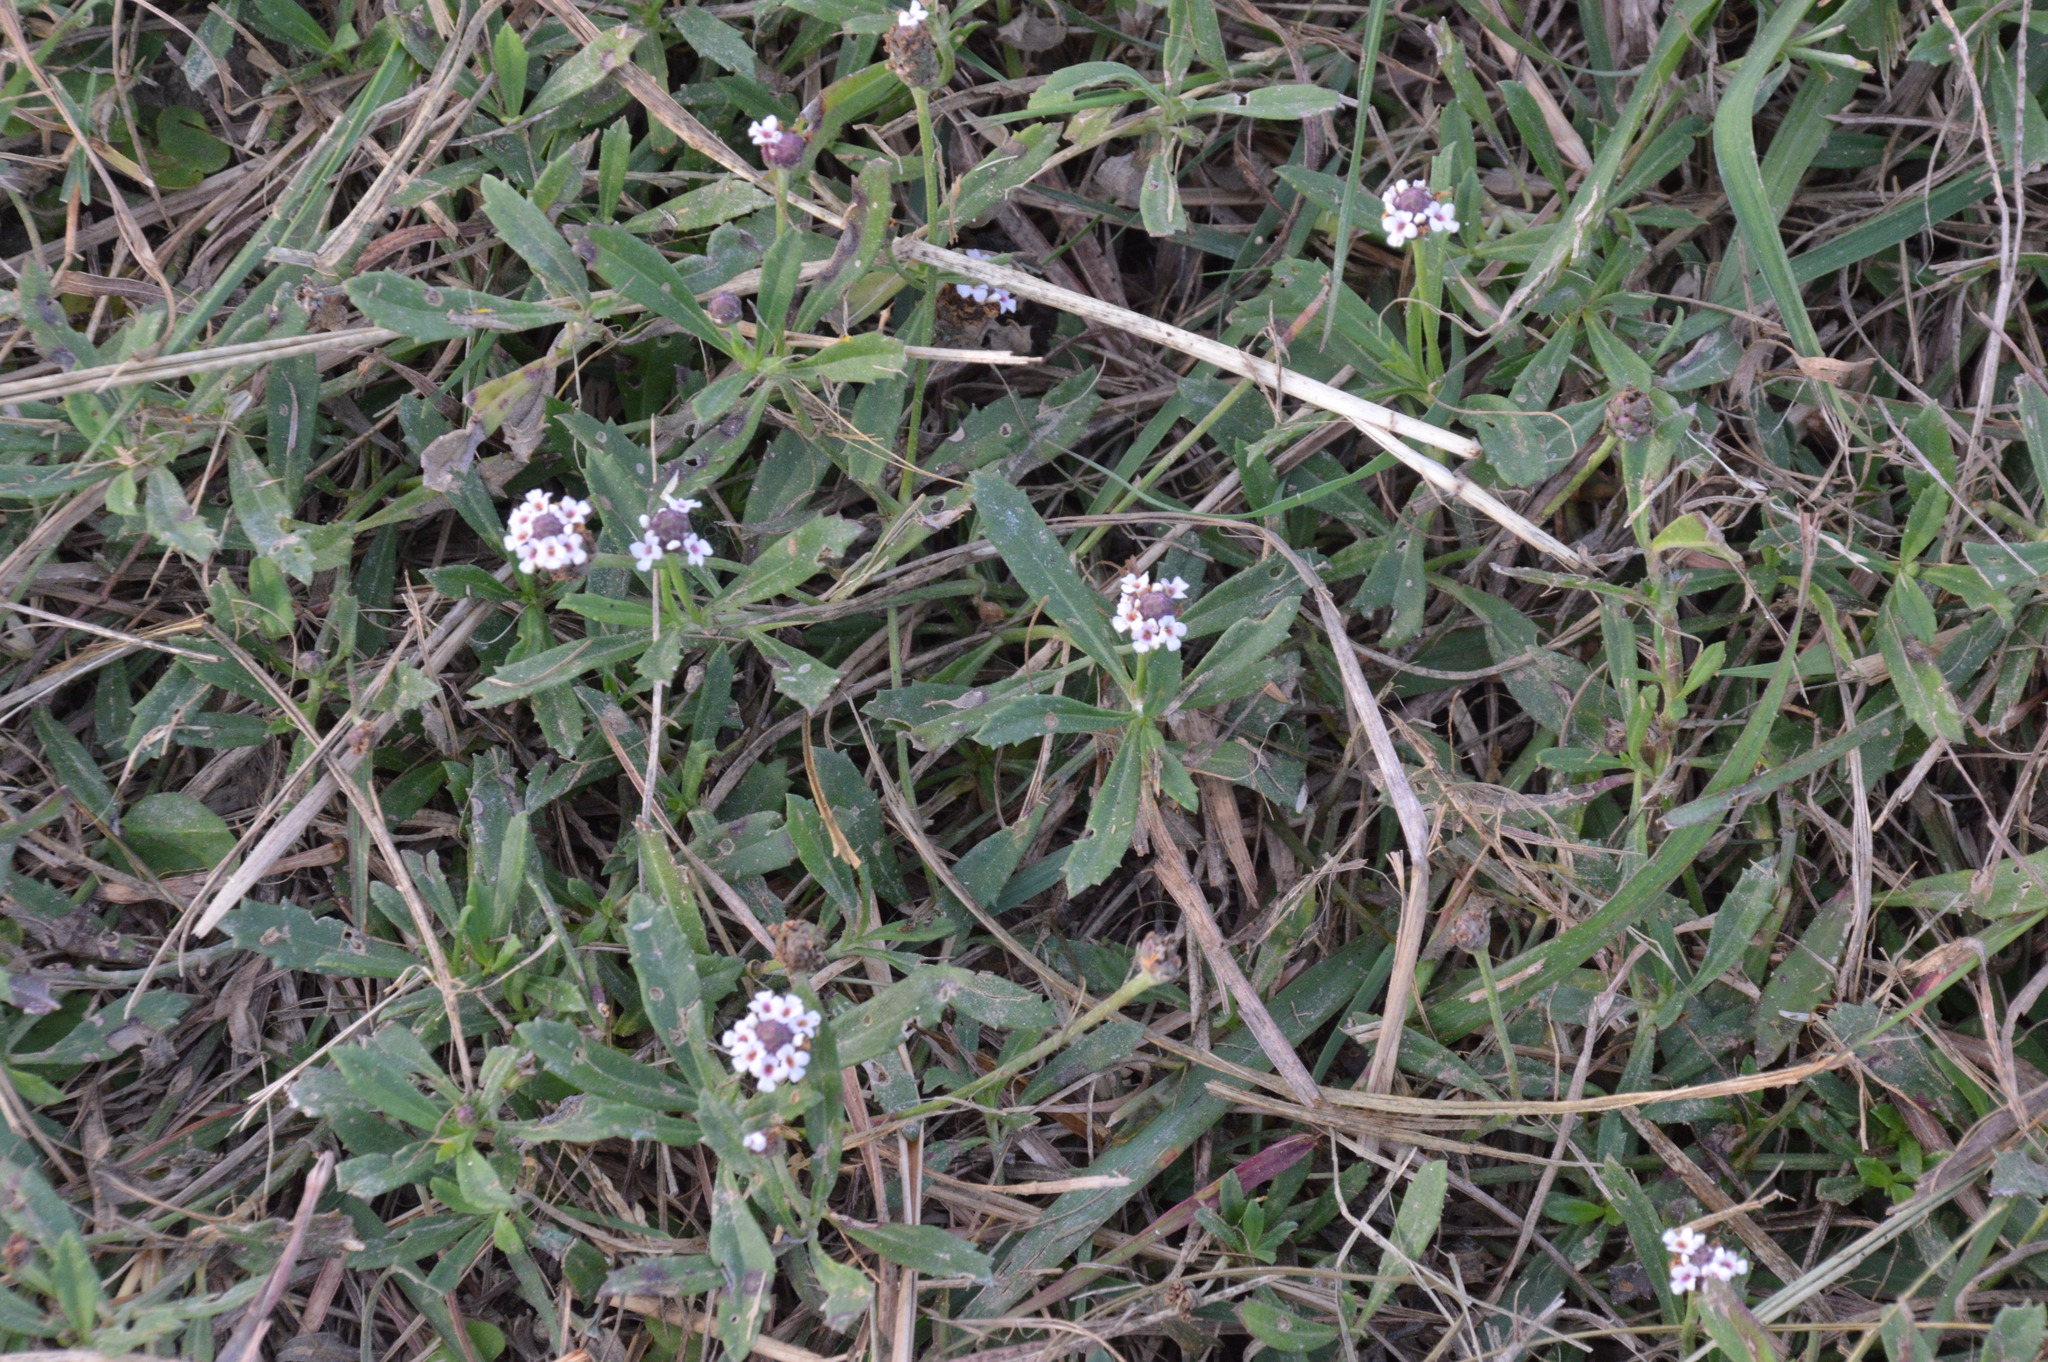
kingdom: Plantae
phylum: Tracheophyta
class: Magnoliopsida
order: Lamiales
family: Verbenaceae
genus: Phyla
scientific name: Phyla nodiflora
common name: Frogfruit
